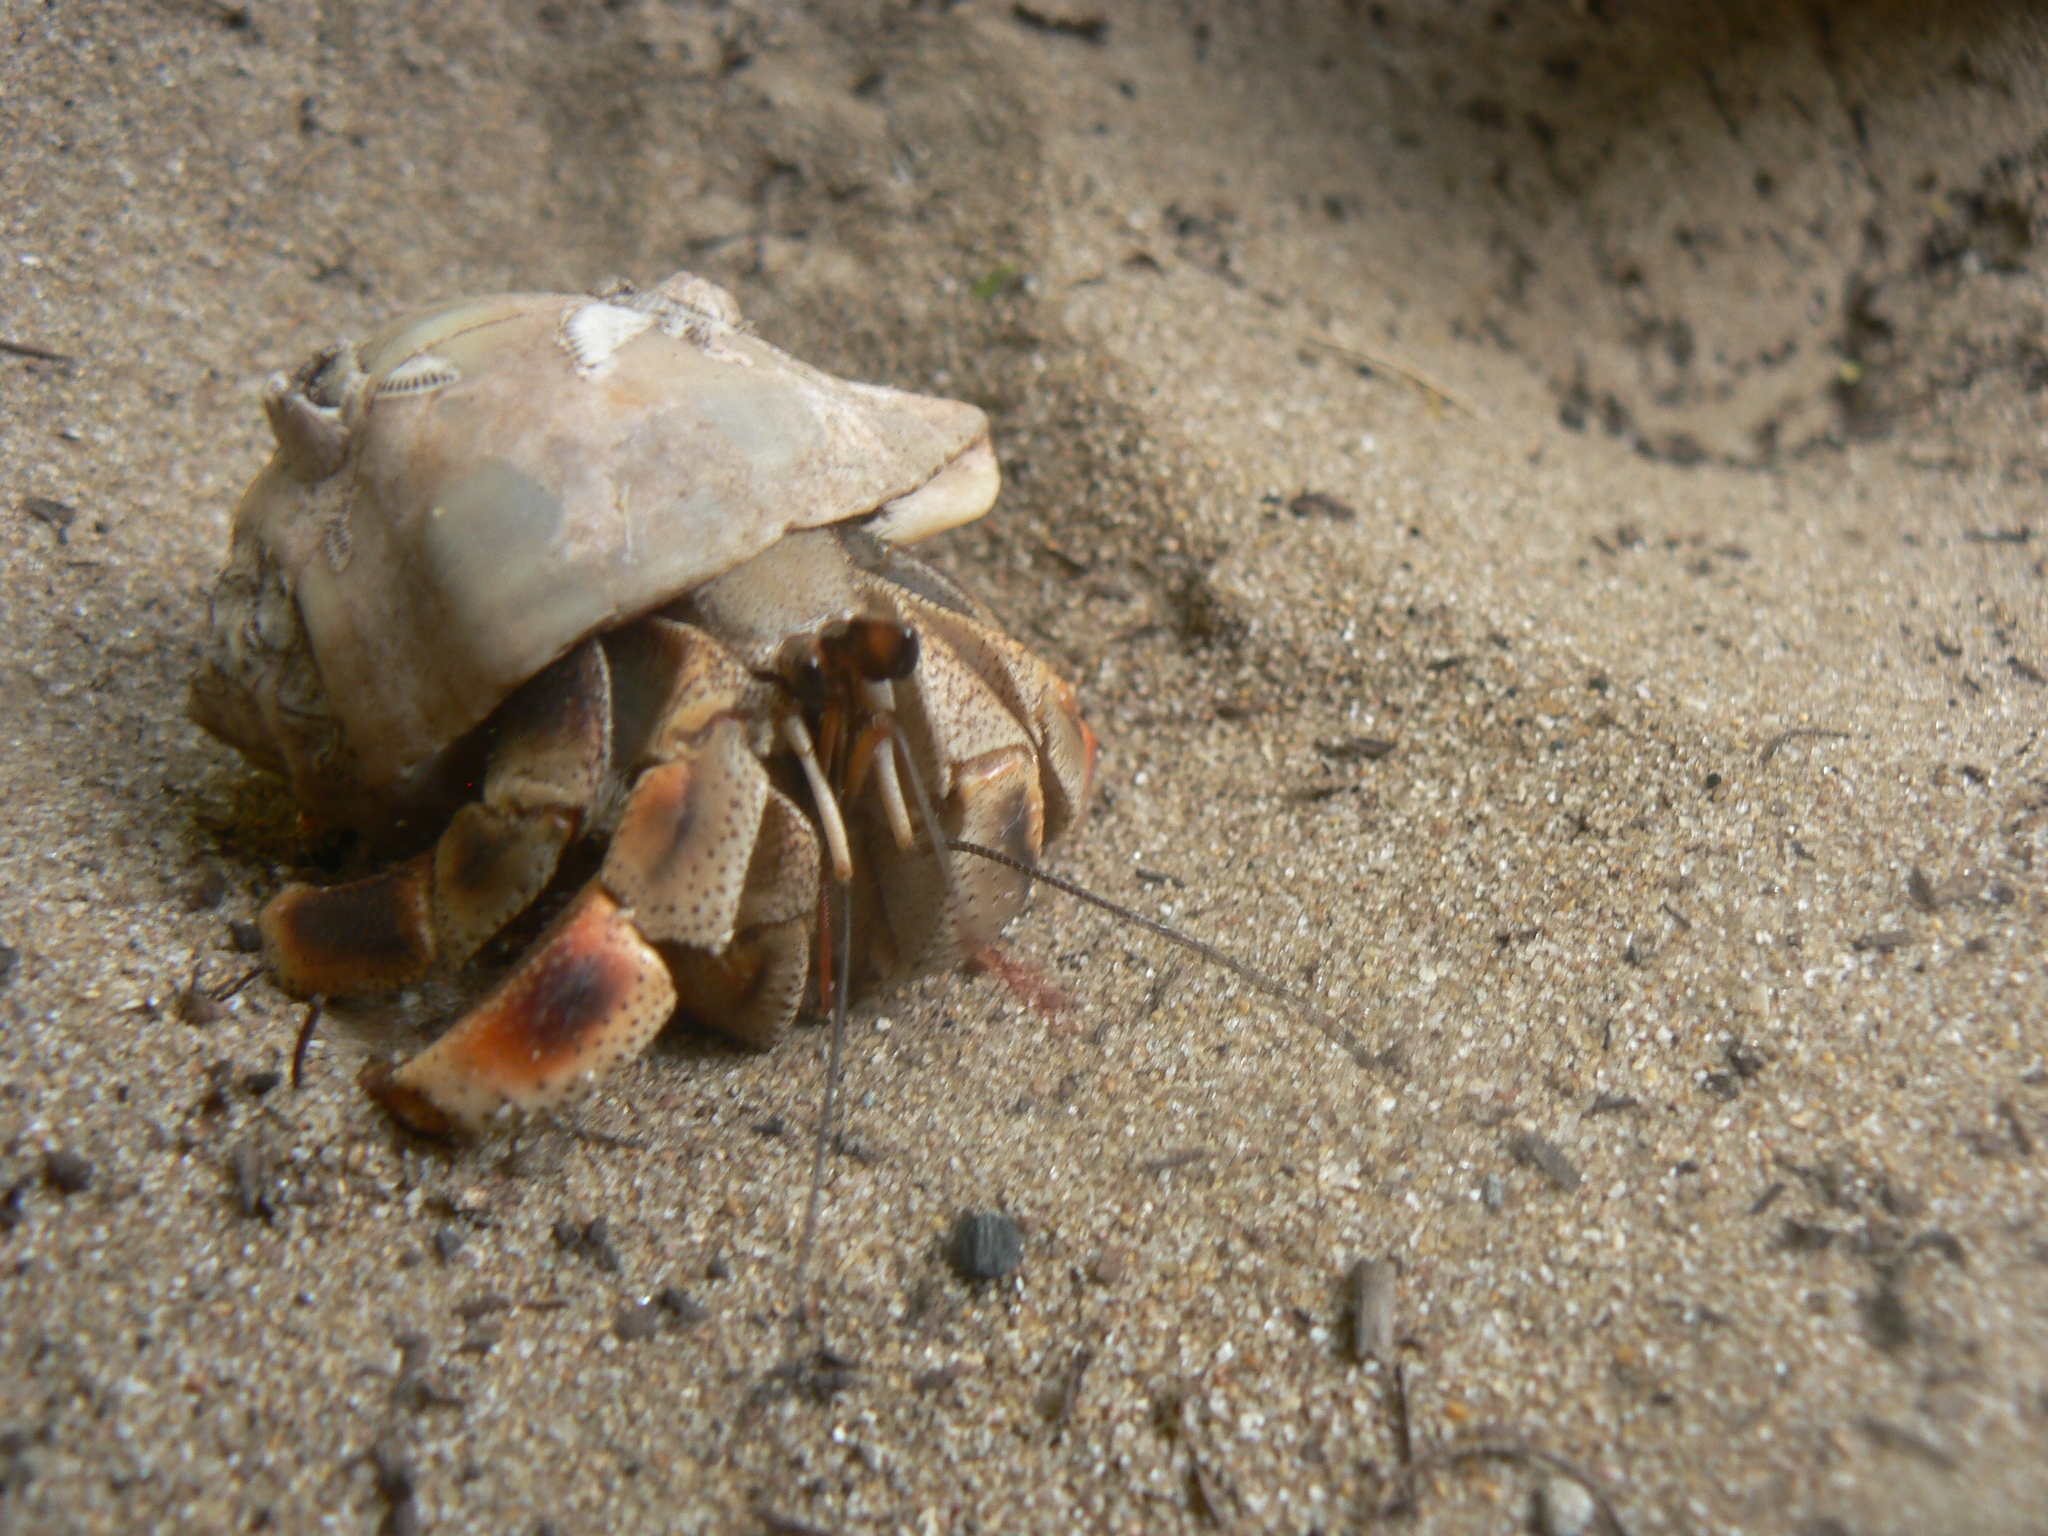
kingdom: Animalia
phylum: Arthropoda
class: Malacostraca
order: Decapoda
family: Coenobitidae
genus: Coenobita
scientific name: Coenobita violascens
